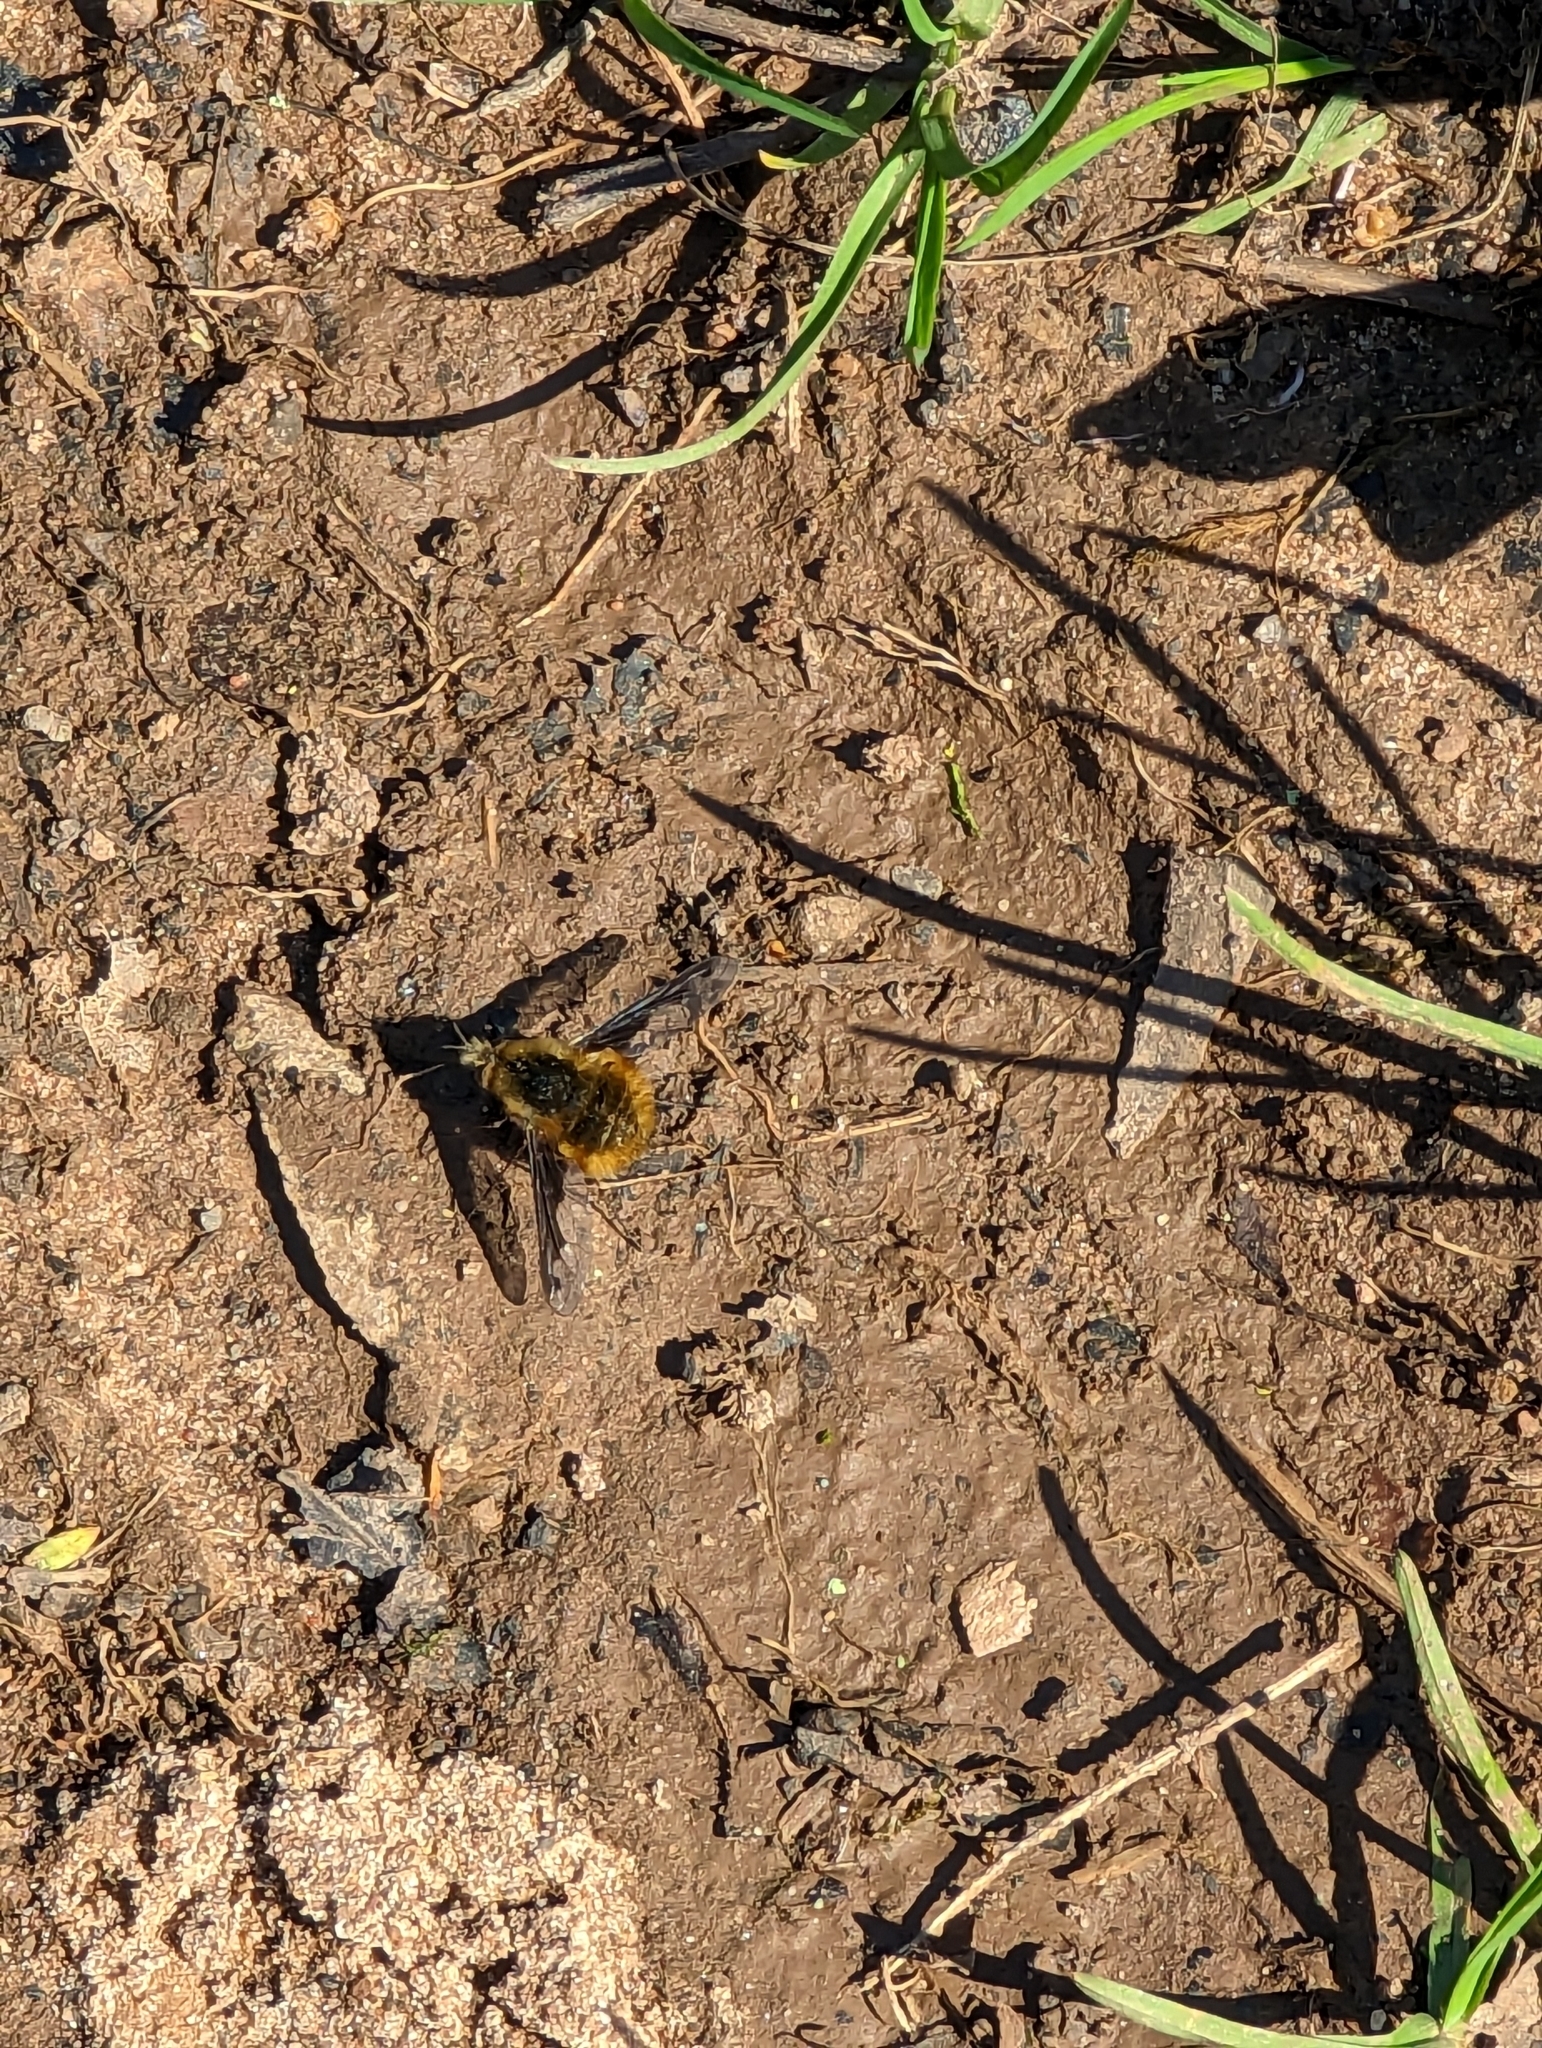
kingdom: Animalia
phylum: Arthropoda
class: Insecta
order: Diptera
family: Bombyliidae
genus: Bombylius
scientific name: Bombylius major
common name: Bee fly
